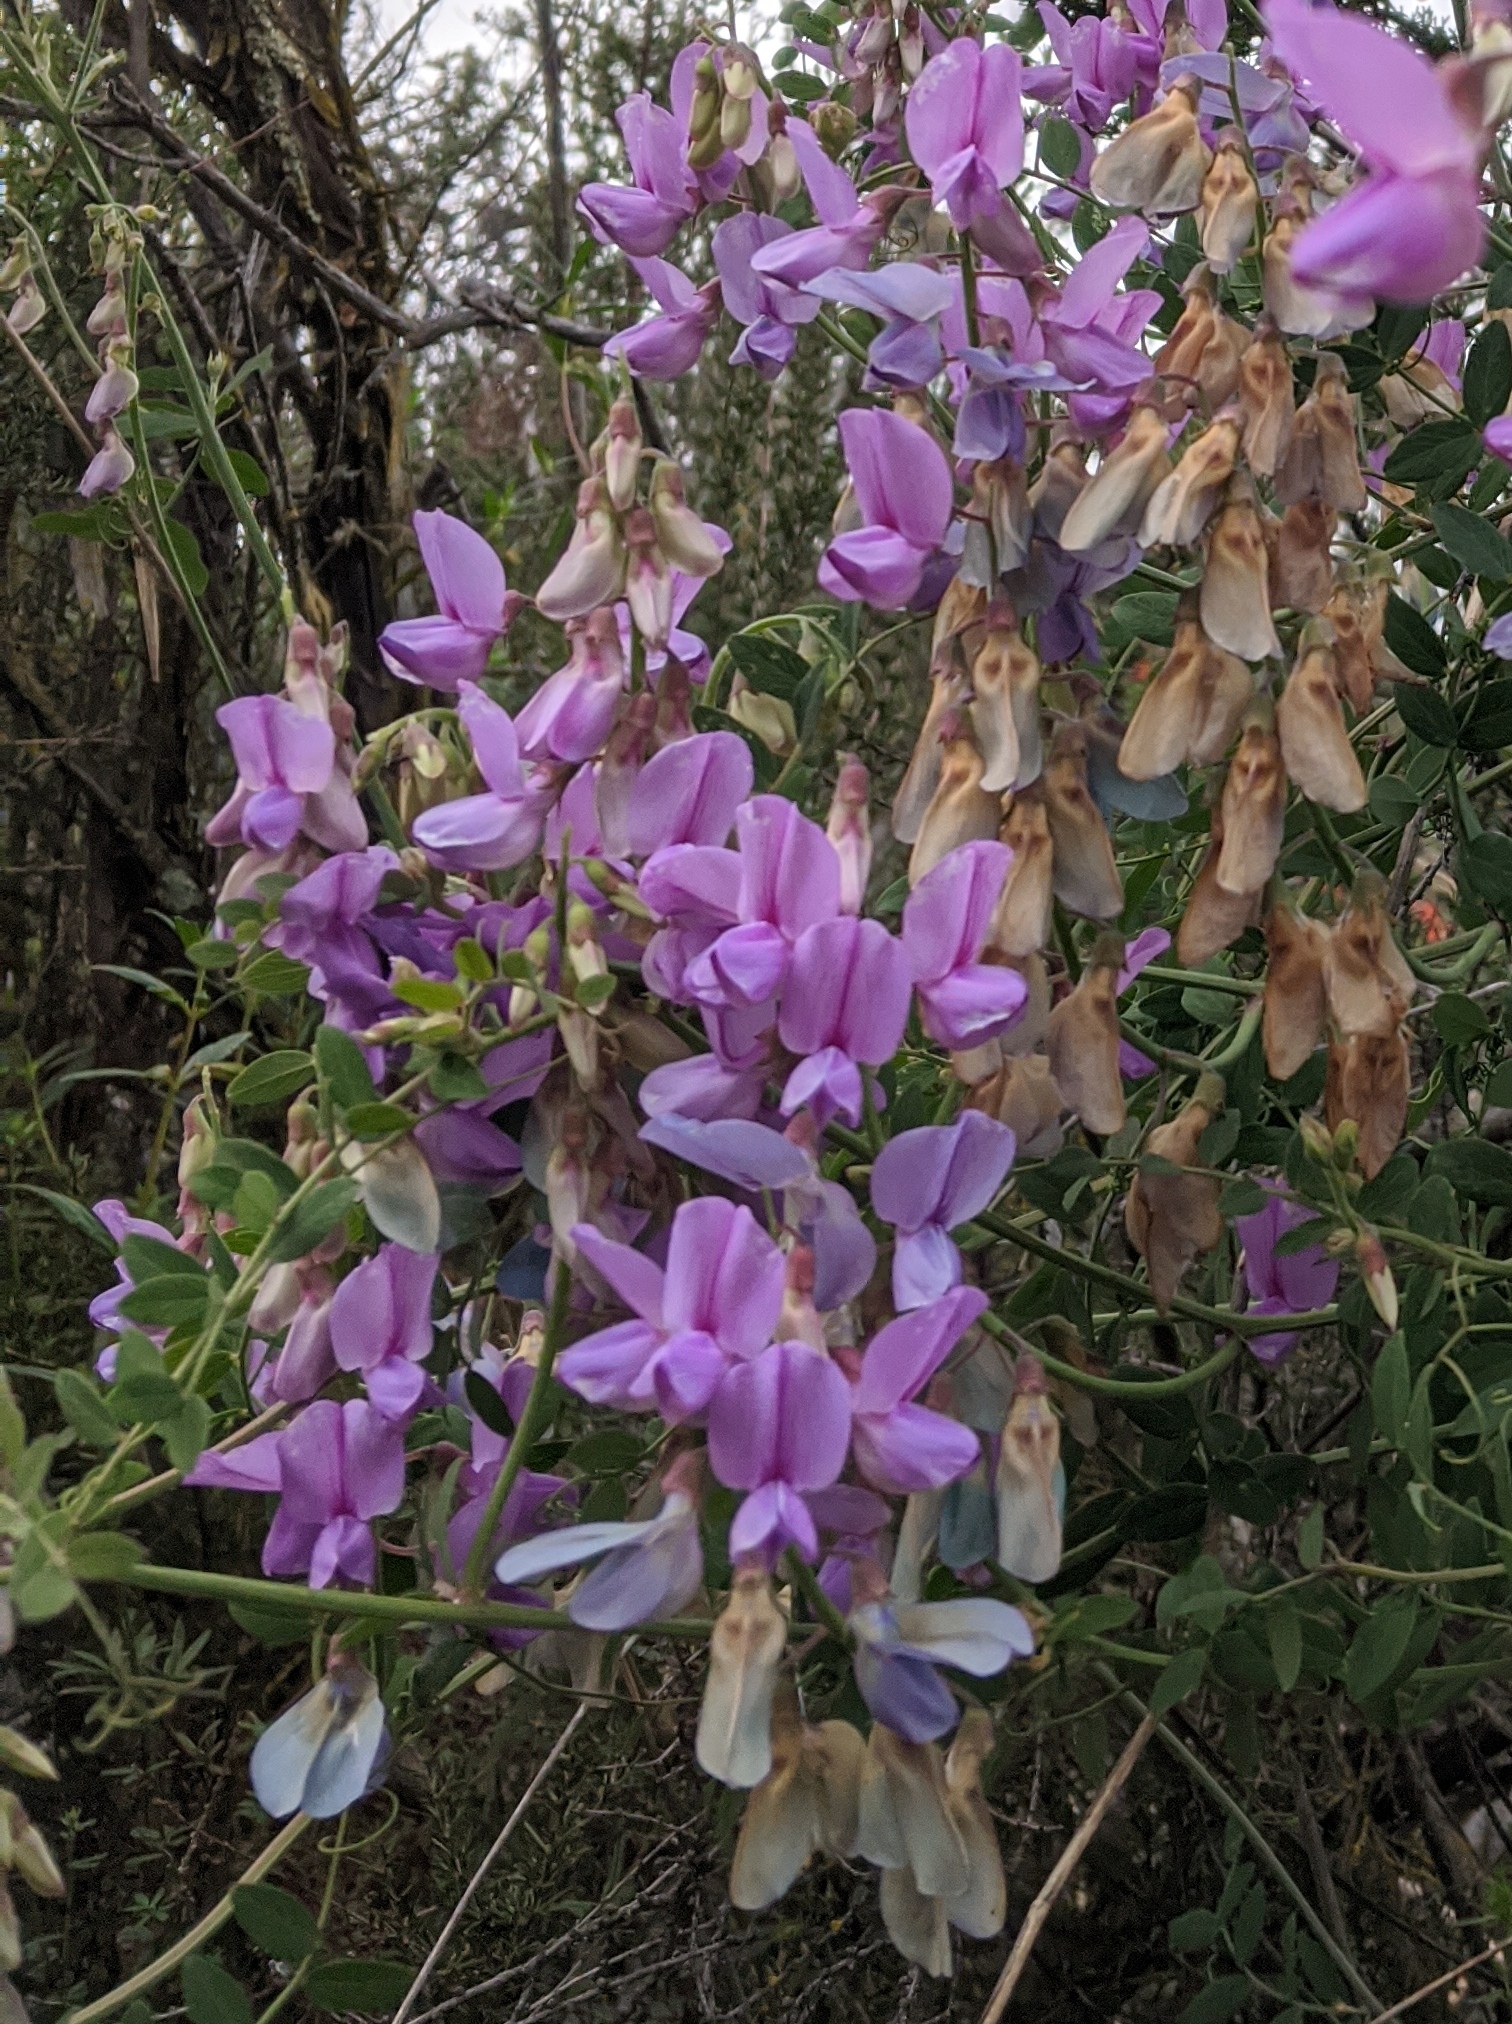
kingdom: Plantae
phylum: Tracheophyta
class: Magnoliopsida
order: Fabales
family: Fabaceae
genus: Lathyrus
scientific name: Lathyrus vestitus
